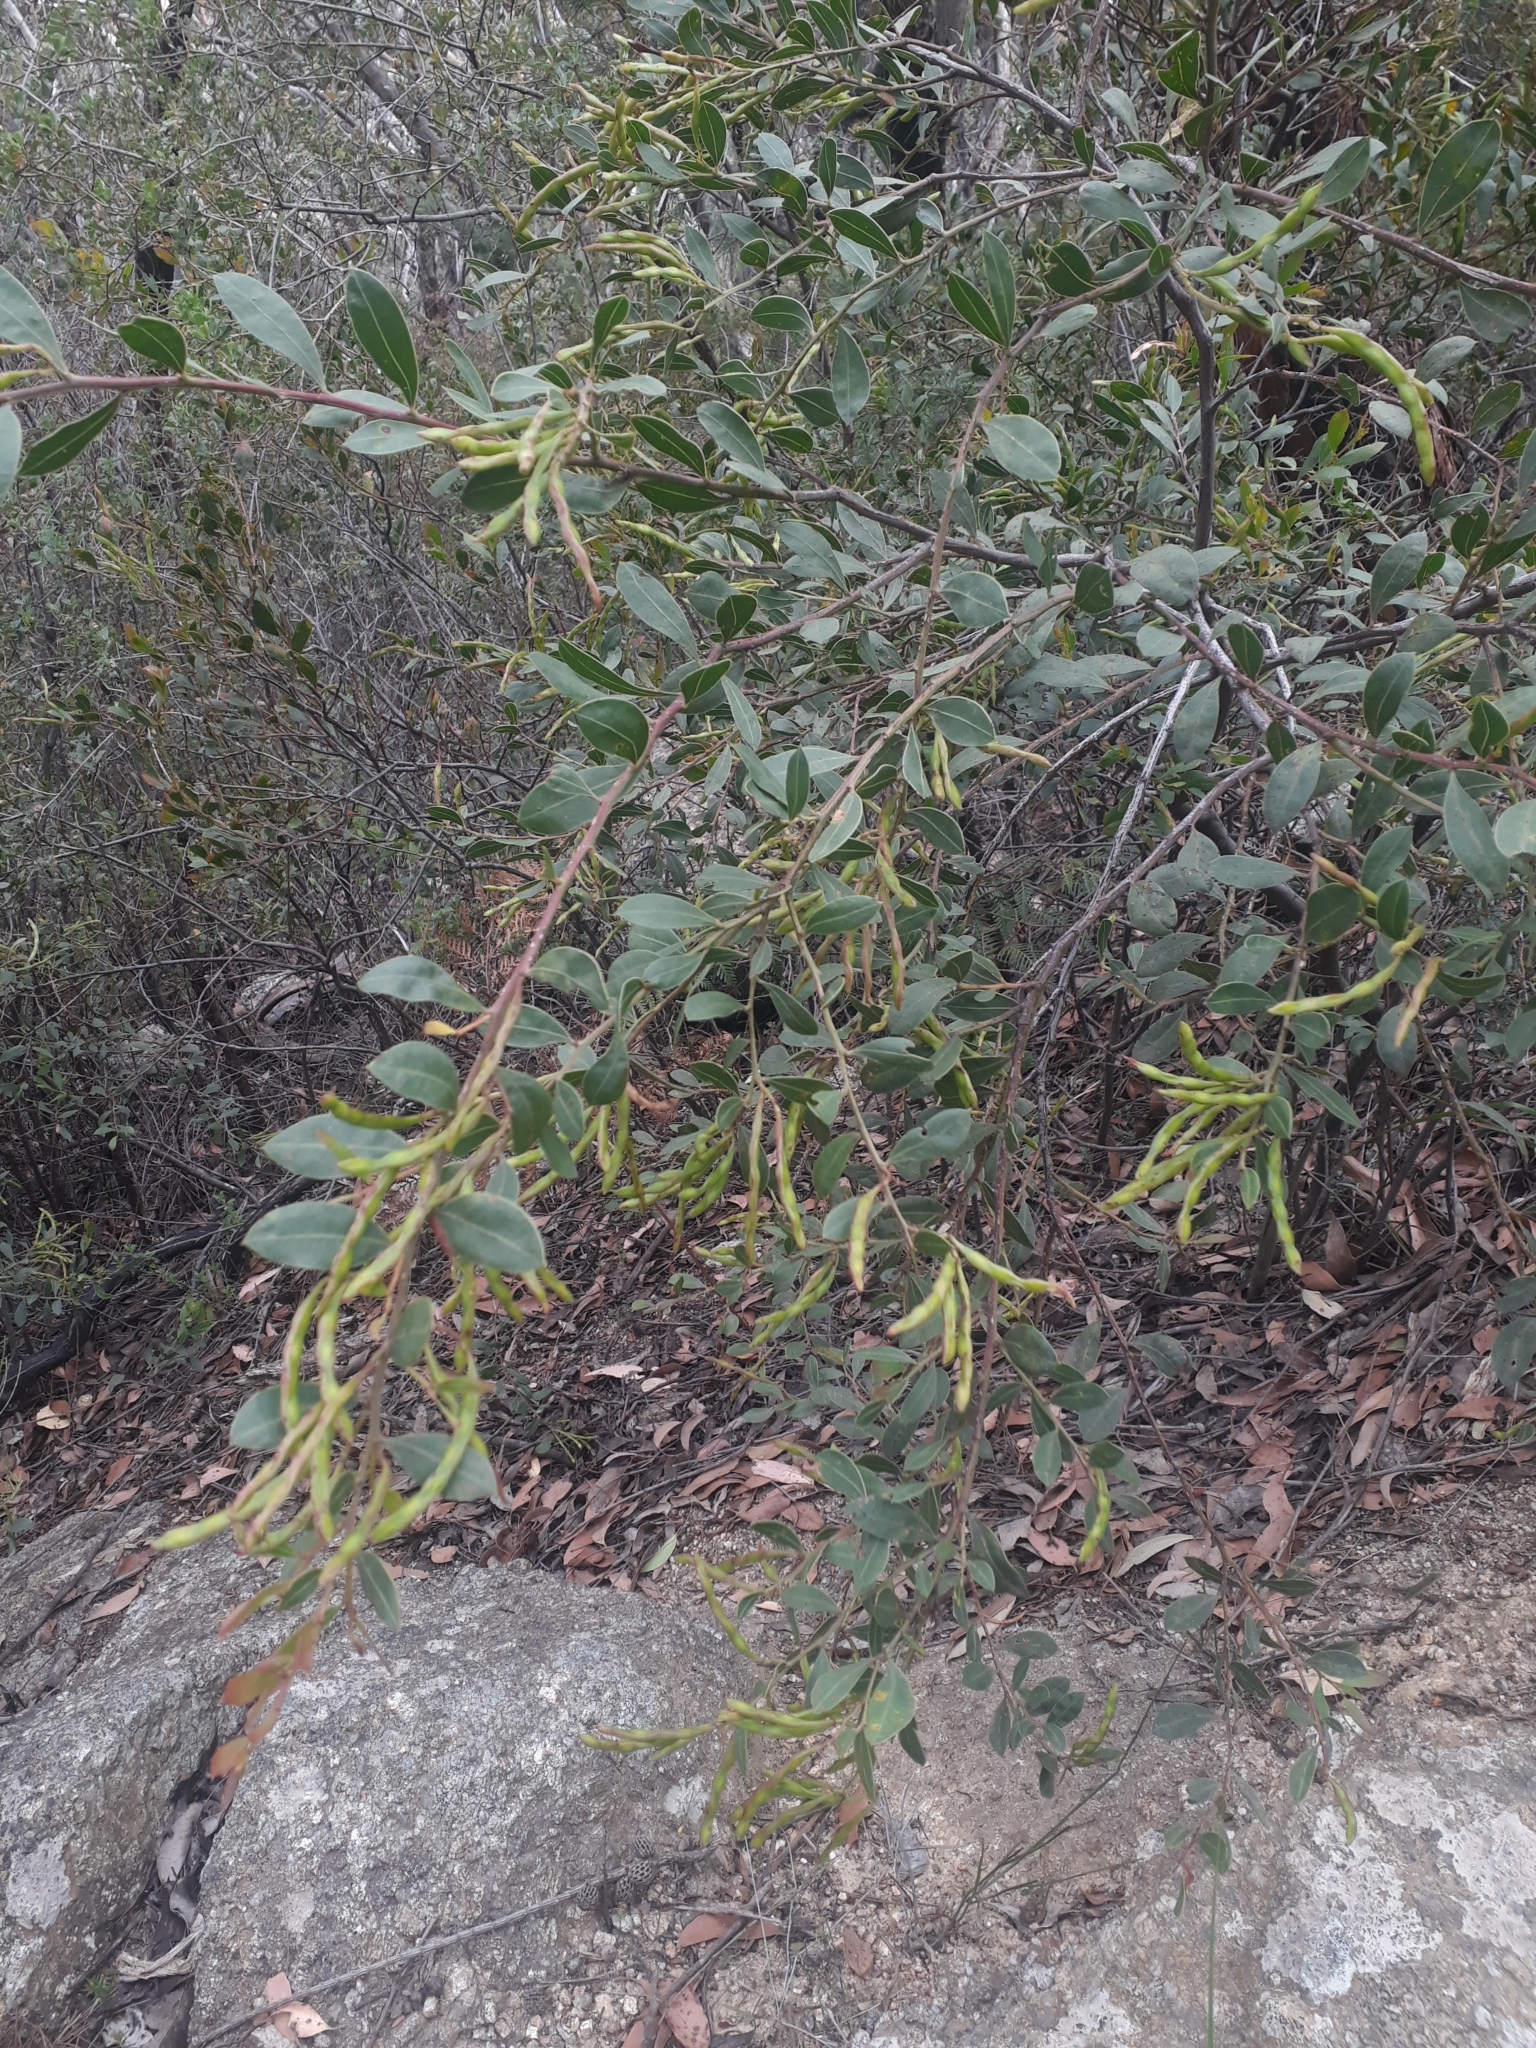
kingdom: Plantae
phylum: Tracheophyta
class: Magnoliopsida
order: Fabales
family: Fabaceae
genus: Acacia
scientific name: Acacia myrtifolia
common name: Myrtle wattle
